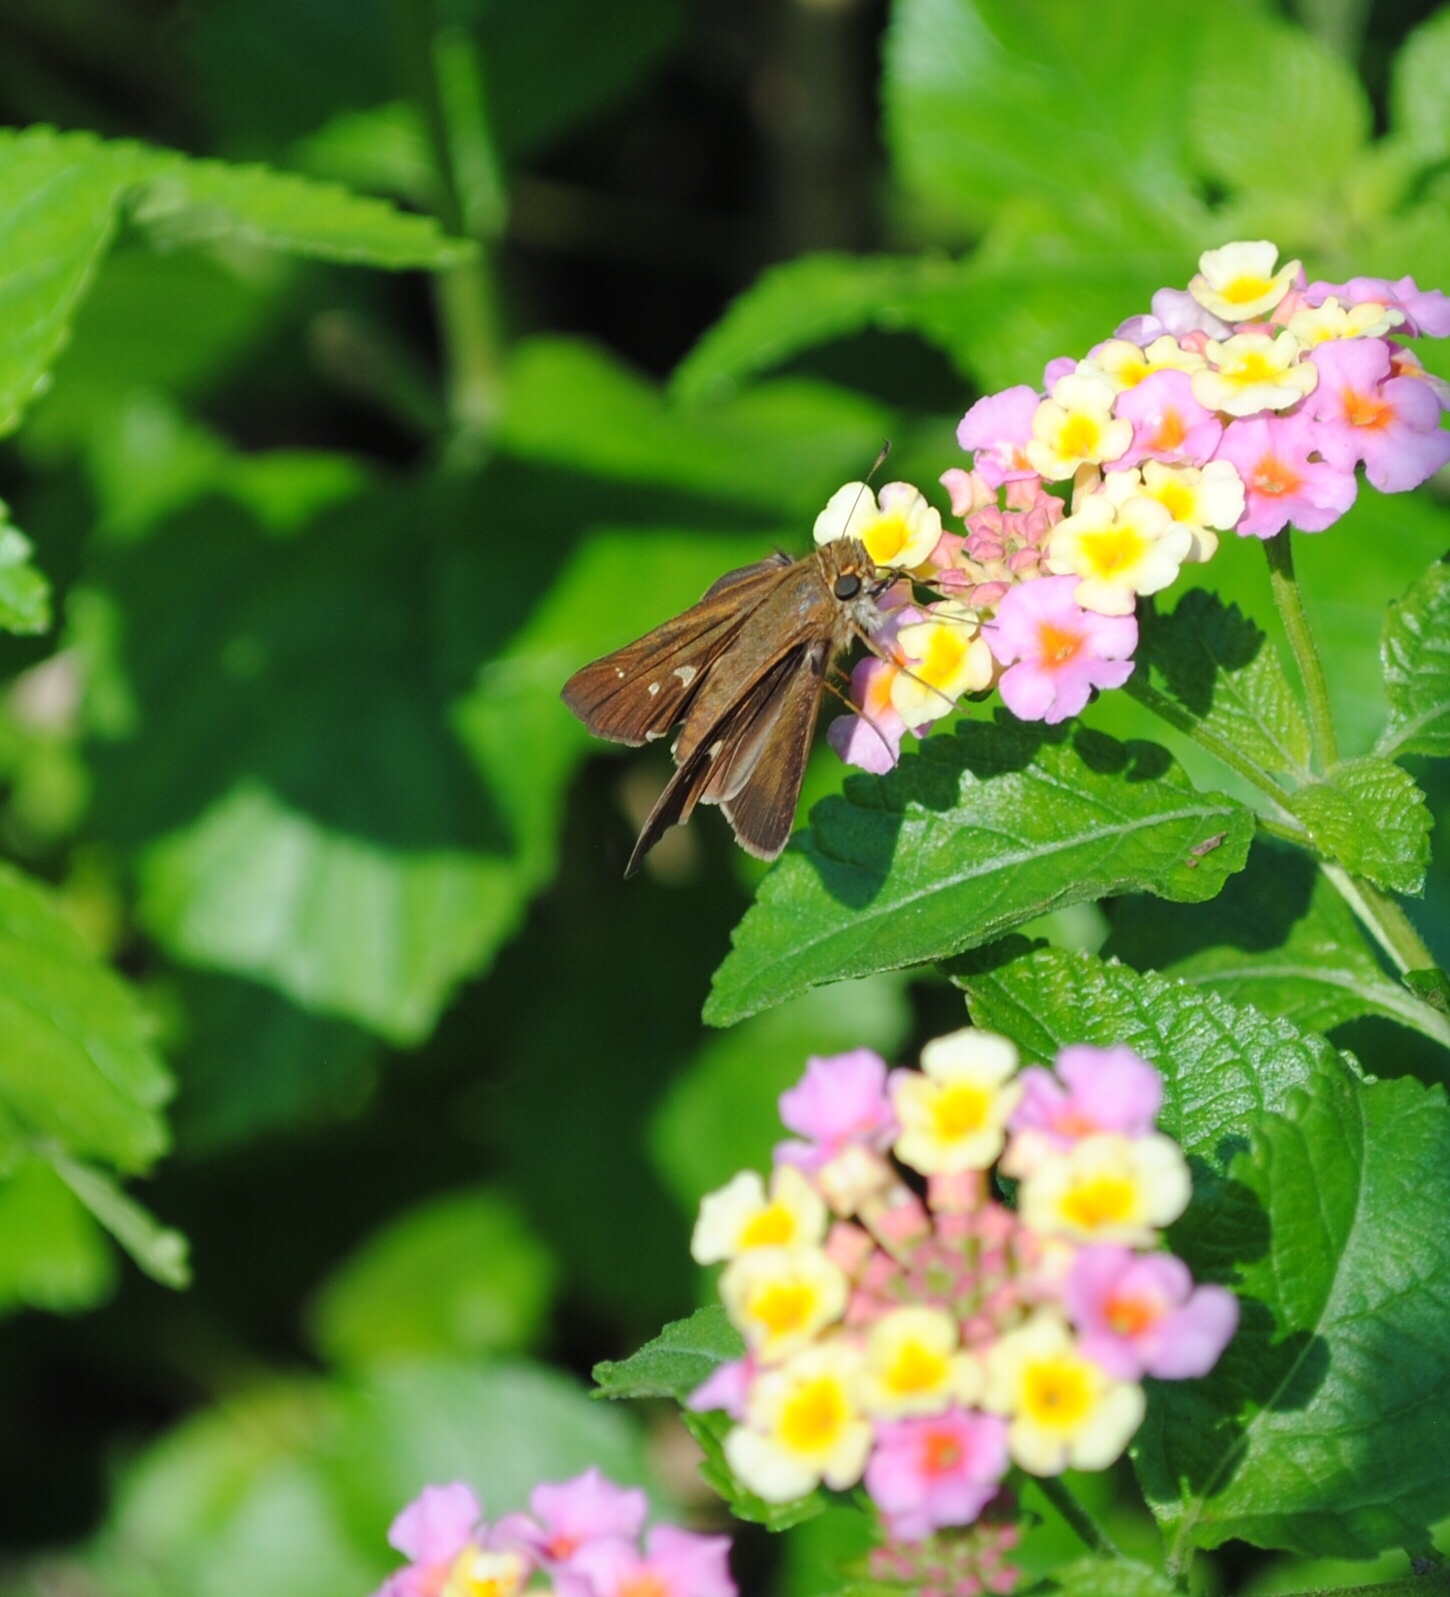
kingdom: Animalia
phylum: Arthropoda
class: Insecta
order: Lepidoptera
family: Hesperiidae
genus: Panoquina
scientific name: Panoquina ocola
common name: Ocola skipper
